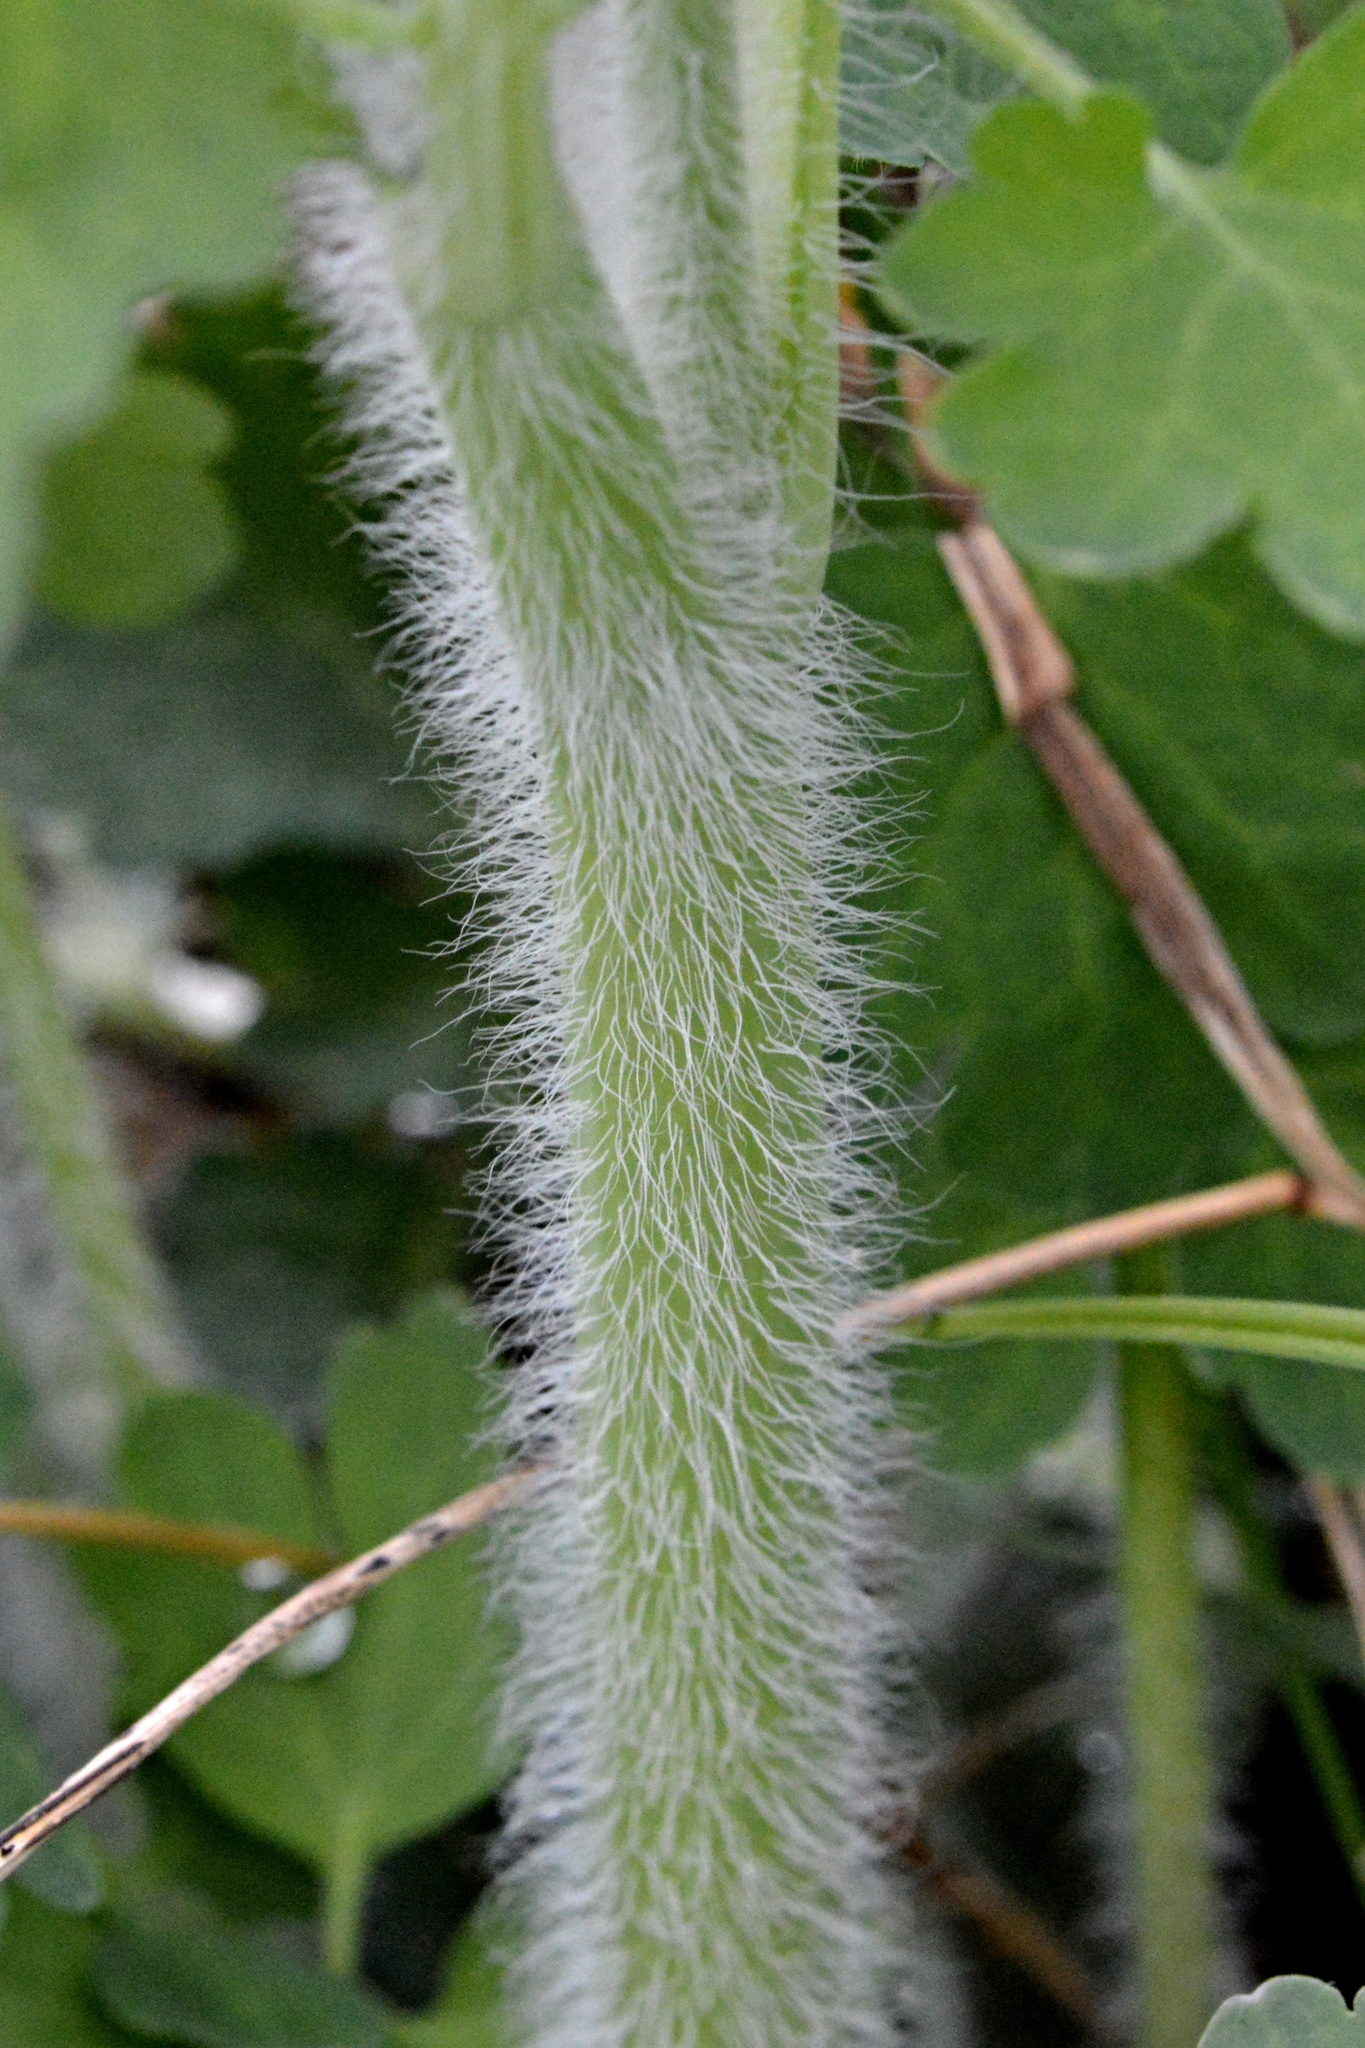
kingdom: Plantae
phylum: Tracheophyta
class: Magnoliopsida
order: Ranunculales
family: Papaveraceae
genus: Chelidonium
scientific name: Chelidonium majus
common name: Greater celandine
